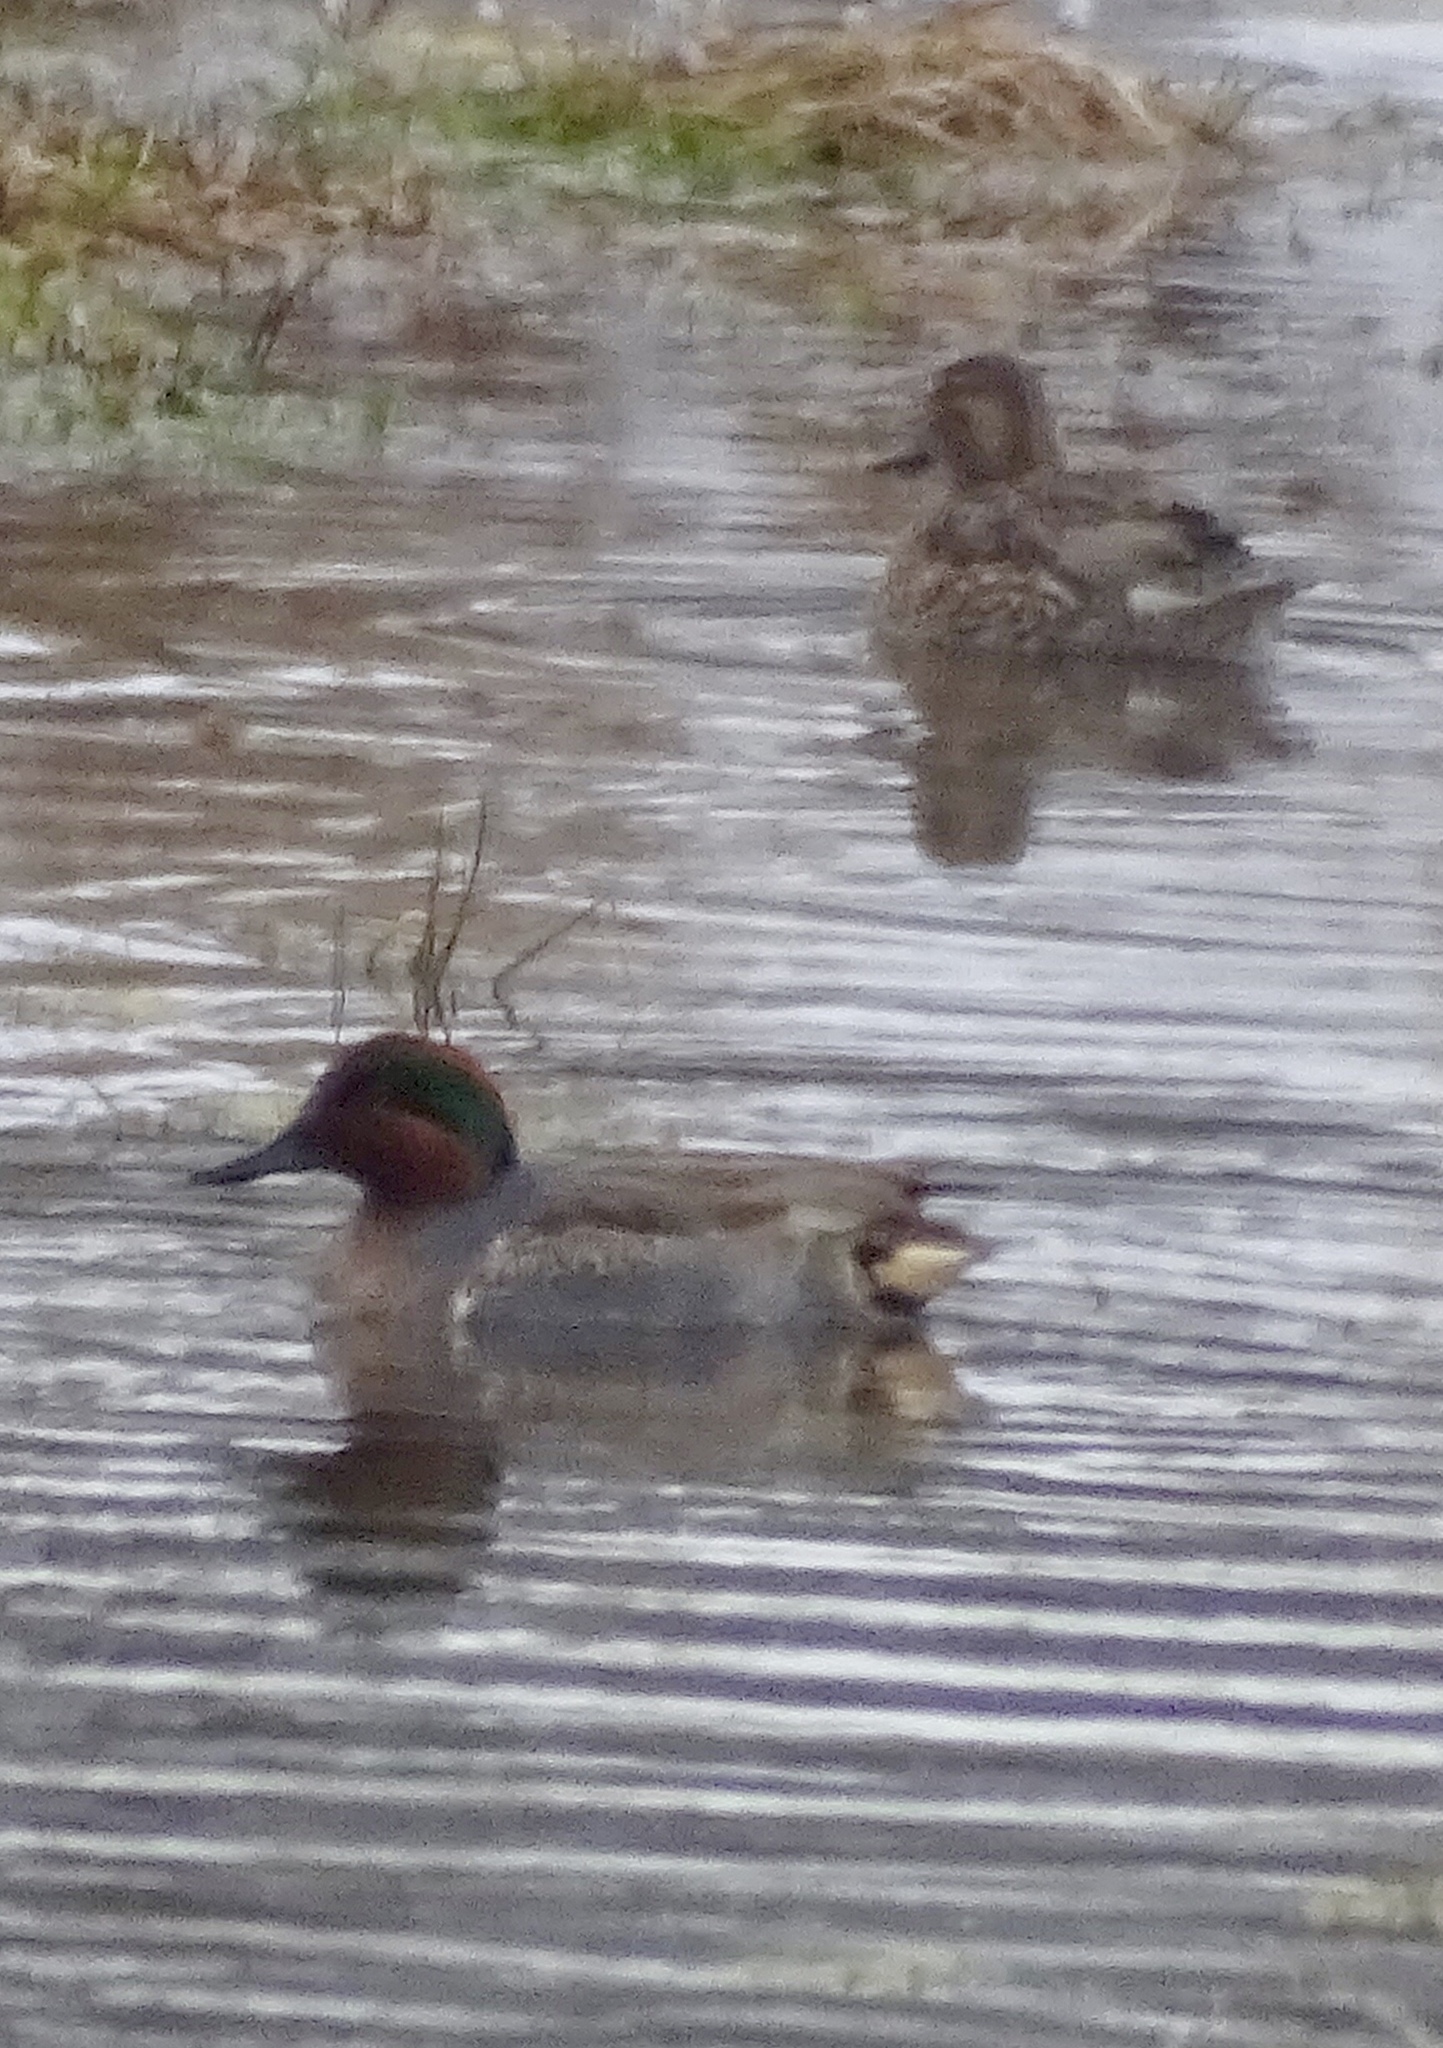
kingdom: Animalia
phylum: Chordata
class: Aves
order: Anseriformes
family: Anatidae
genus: Anas
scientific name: Anas crecca
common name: Eurasian teal
